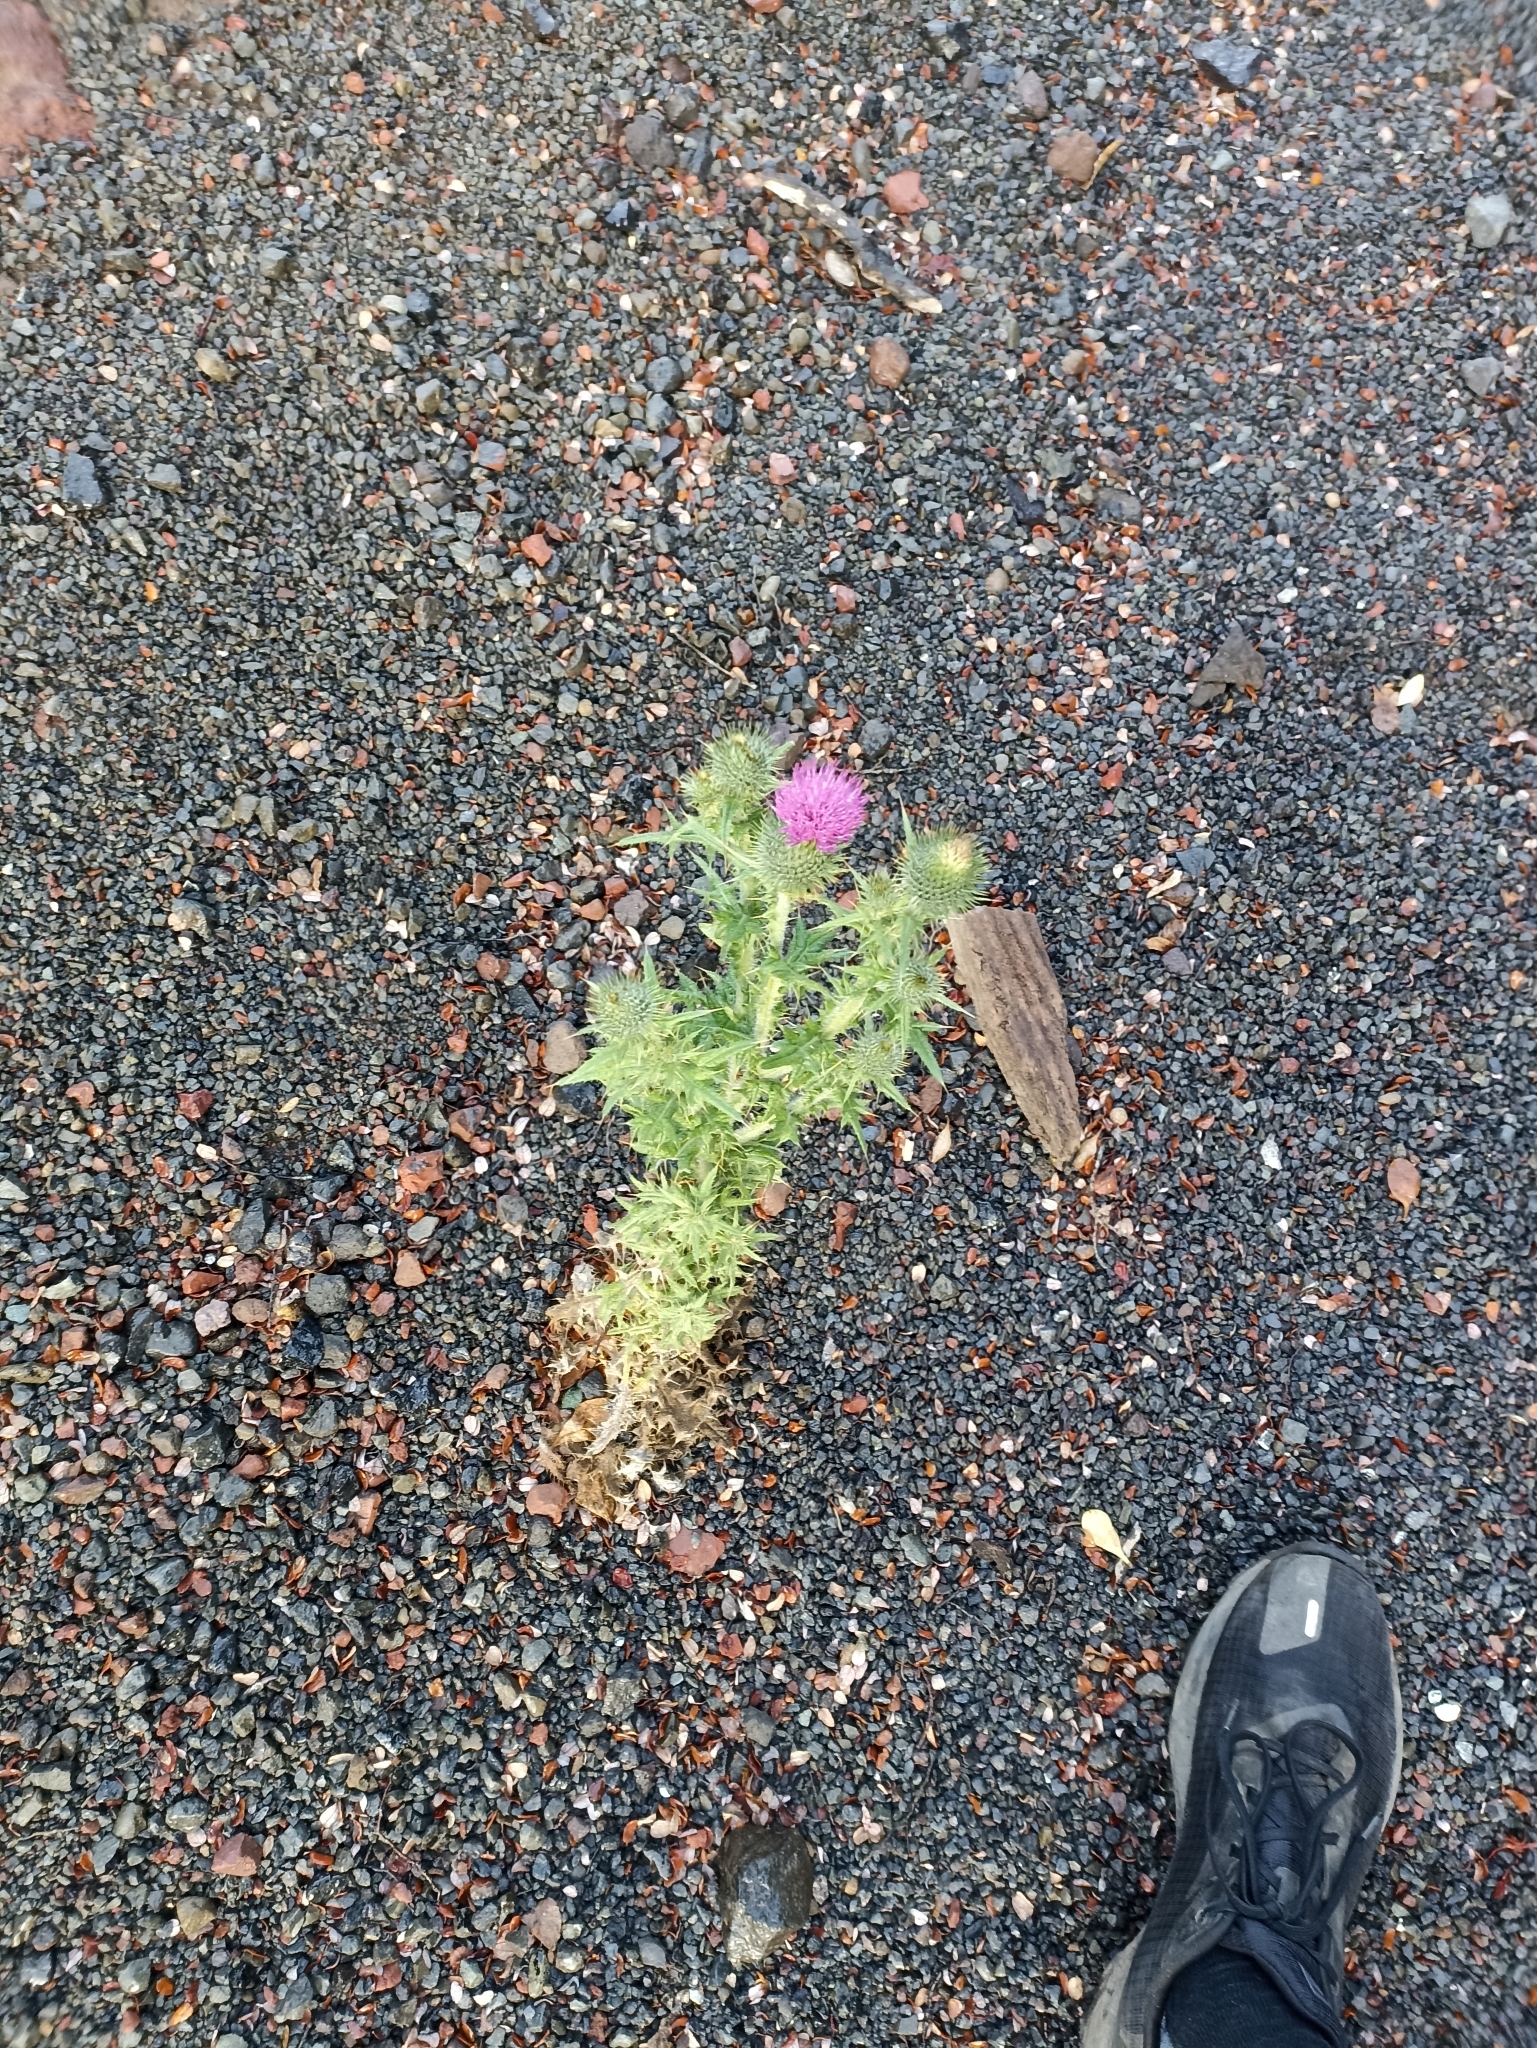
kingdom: Plantae
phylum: Tracheophyta
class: Magnoliopsida
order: Asterales
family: Asteraceae
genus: Cirsium
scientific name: Cirsium vulgare
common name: Bull thistle
